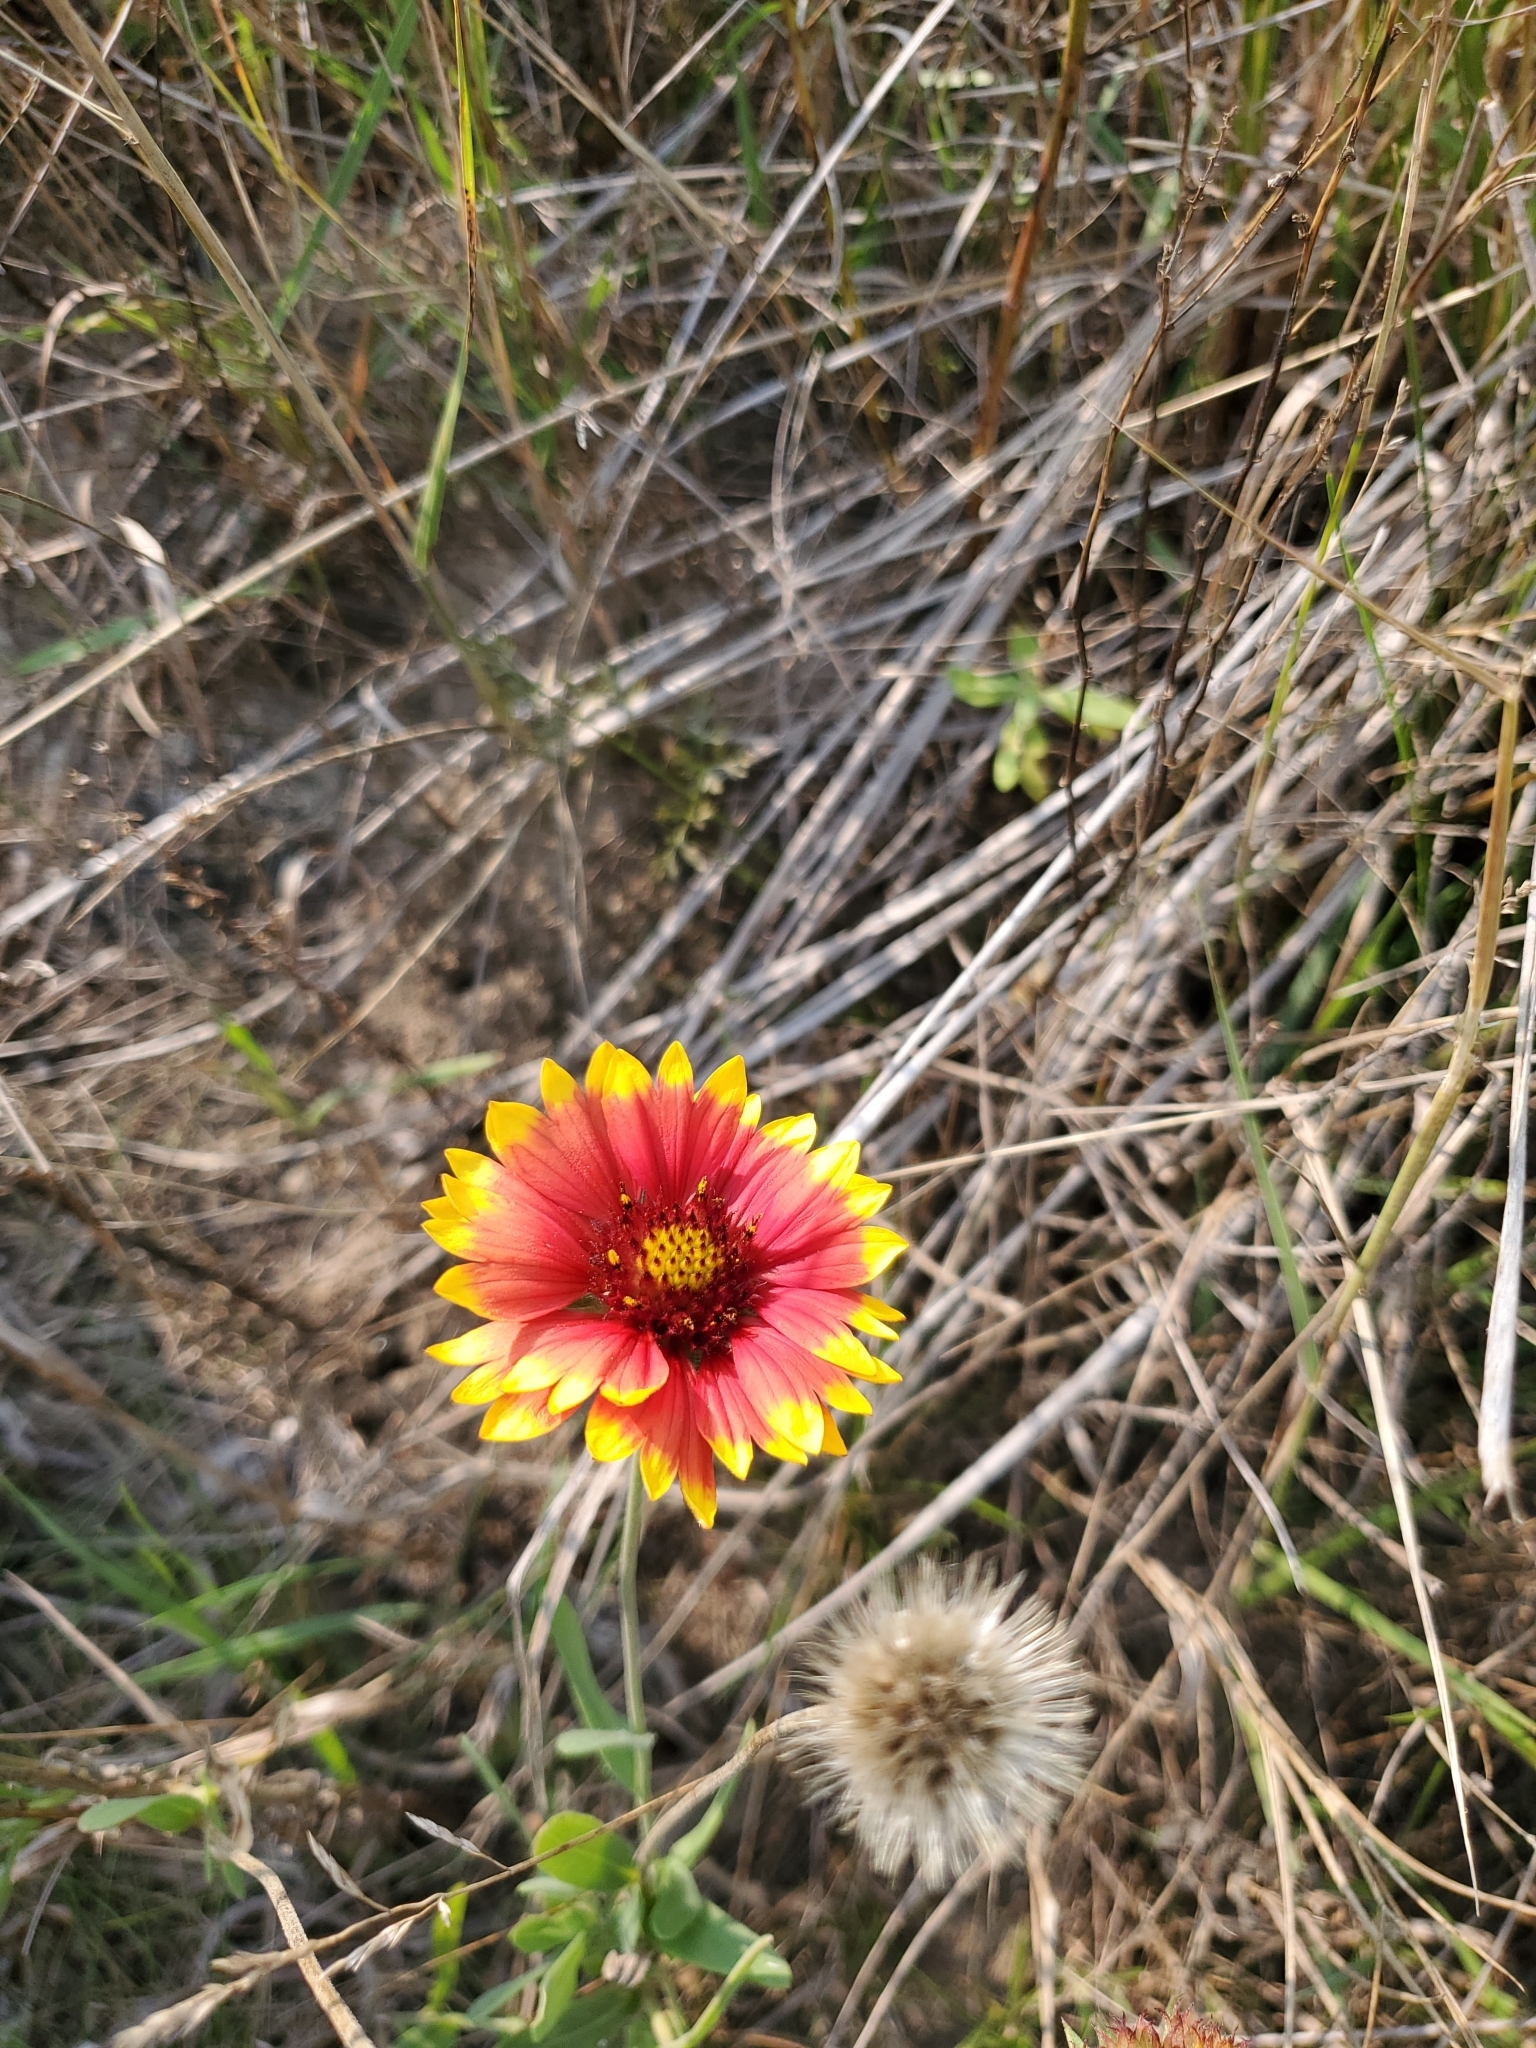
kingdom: Plantae
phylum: Tracheophyta
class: Magnoliopsida
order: Asterales
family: Asteraceae
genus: Gaillardia
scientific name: Gaillardia pulchella
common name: Firewheel
